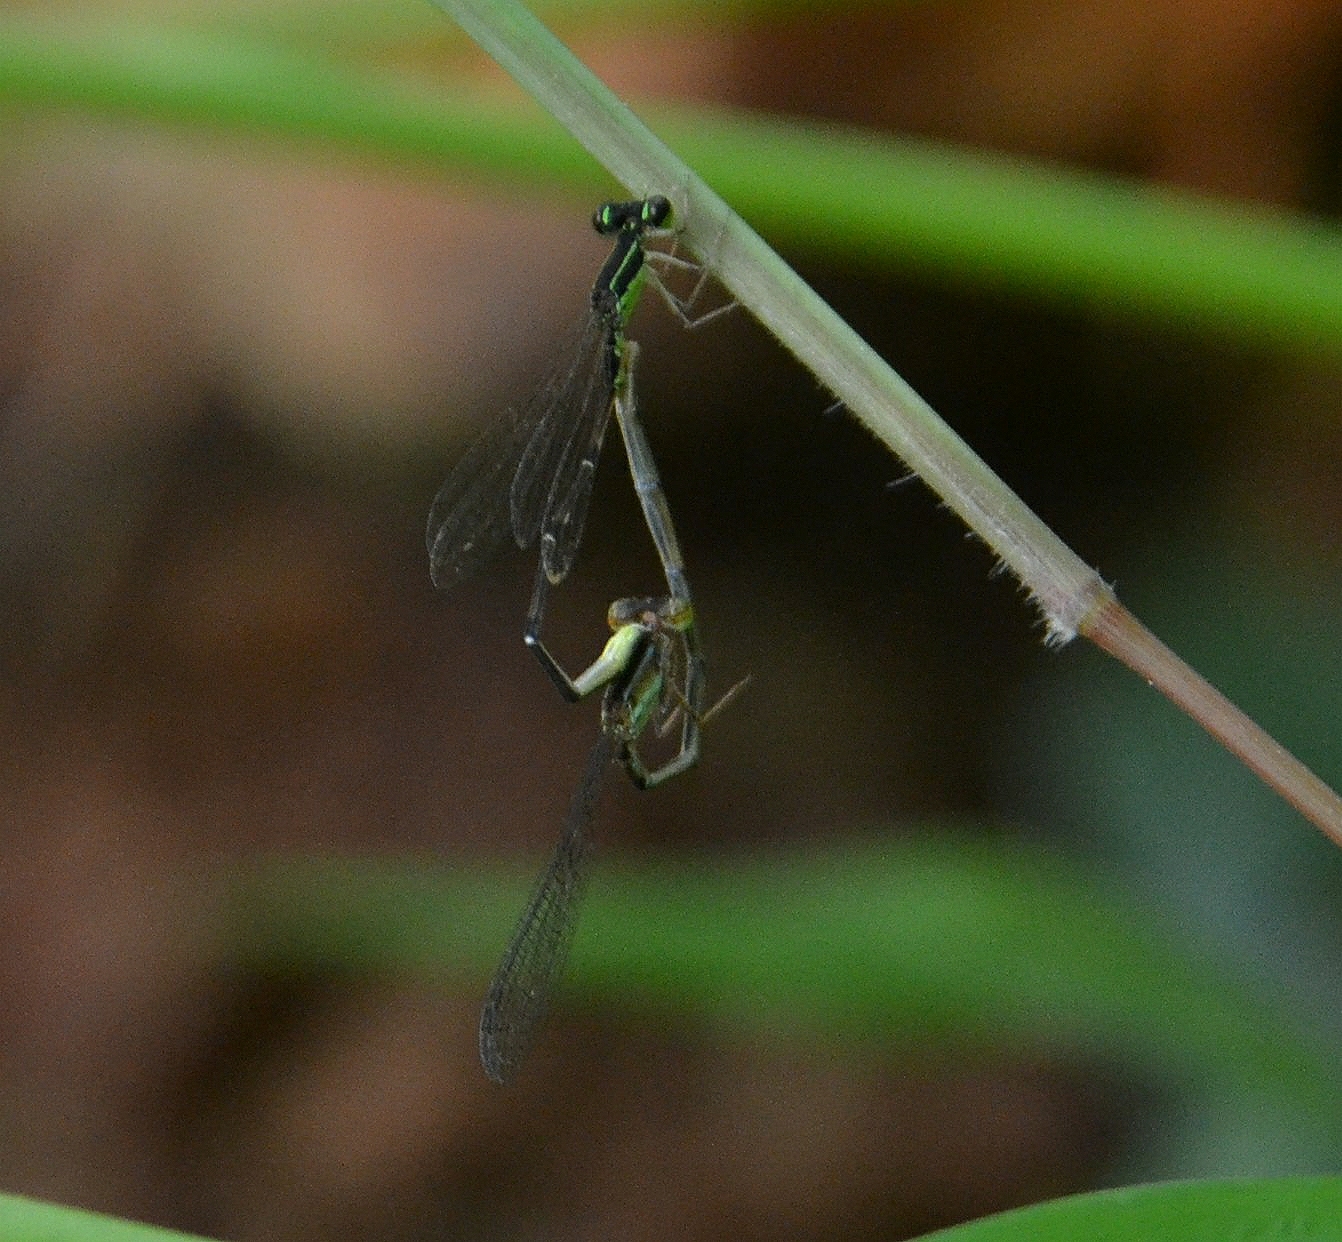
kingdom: Animalia
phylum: Arthropoda
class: Insecta
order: Odonata
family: Coenagrionidae
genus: Mortonagrion
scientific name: Mortonagrion varralli
